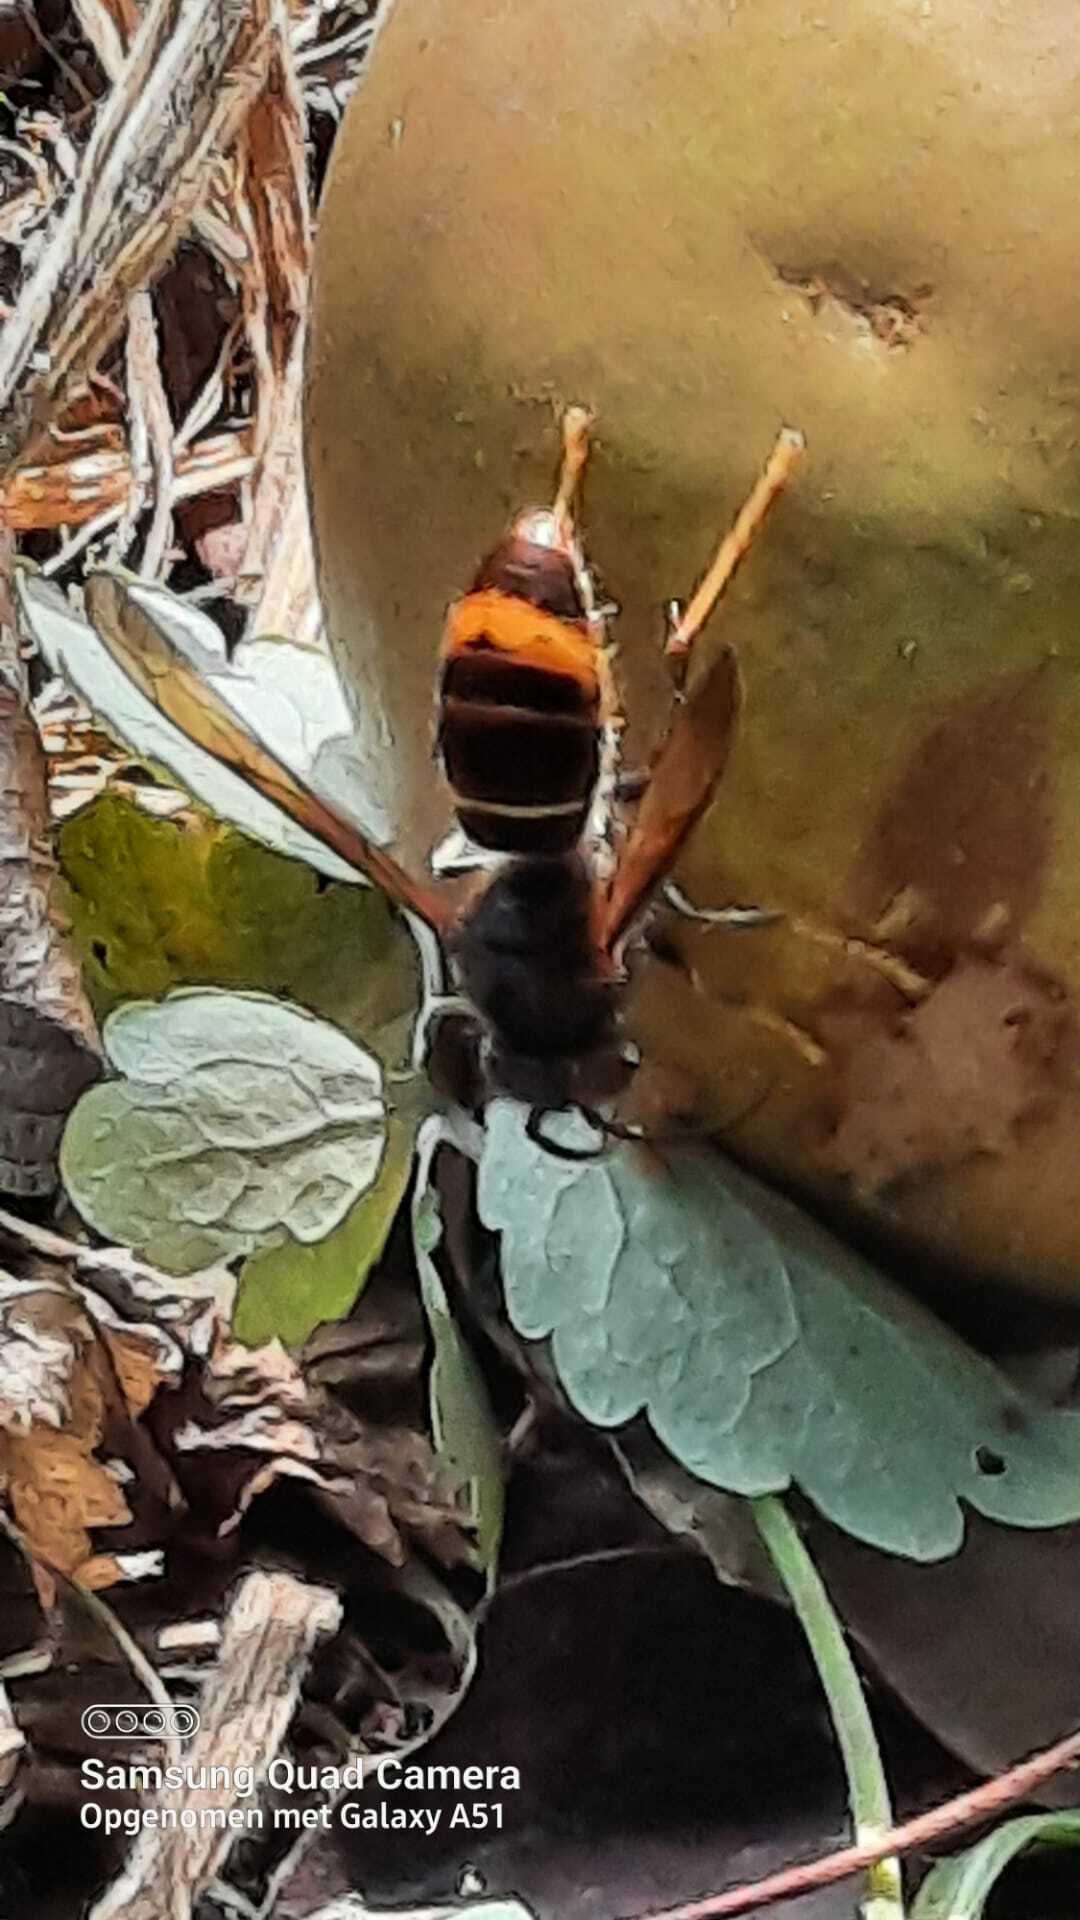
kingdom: Animalia
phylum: Arthropoda
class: Insecta
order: Hymenoptera
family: Vespidae
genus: Vespa
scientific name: Vespa velutina
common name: Asian hornet
